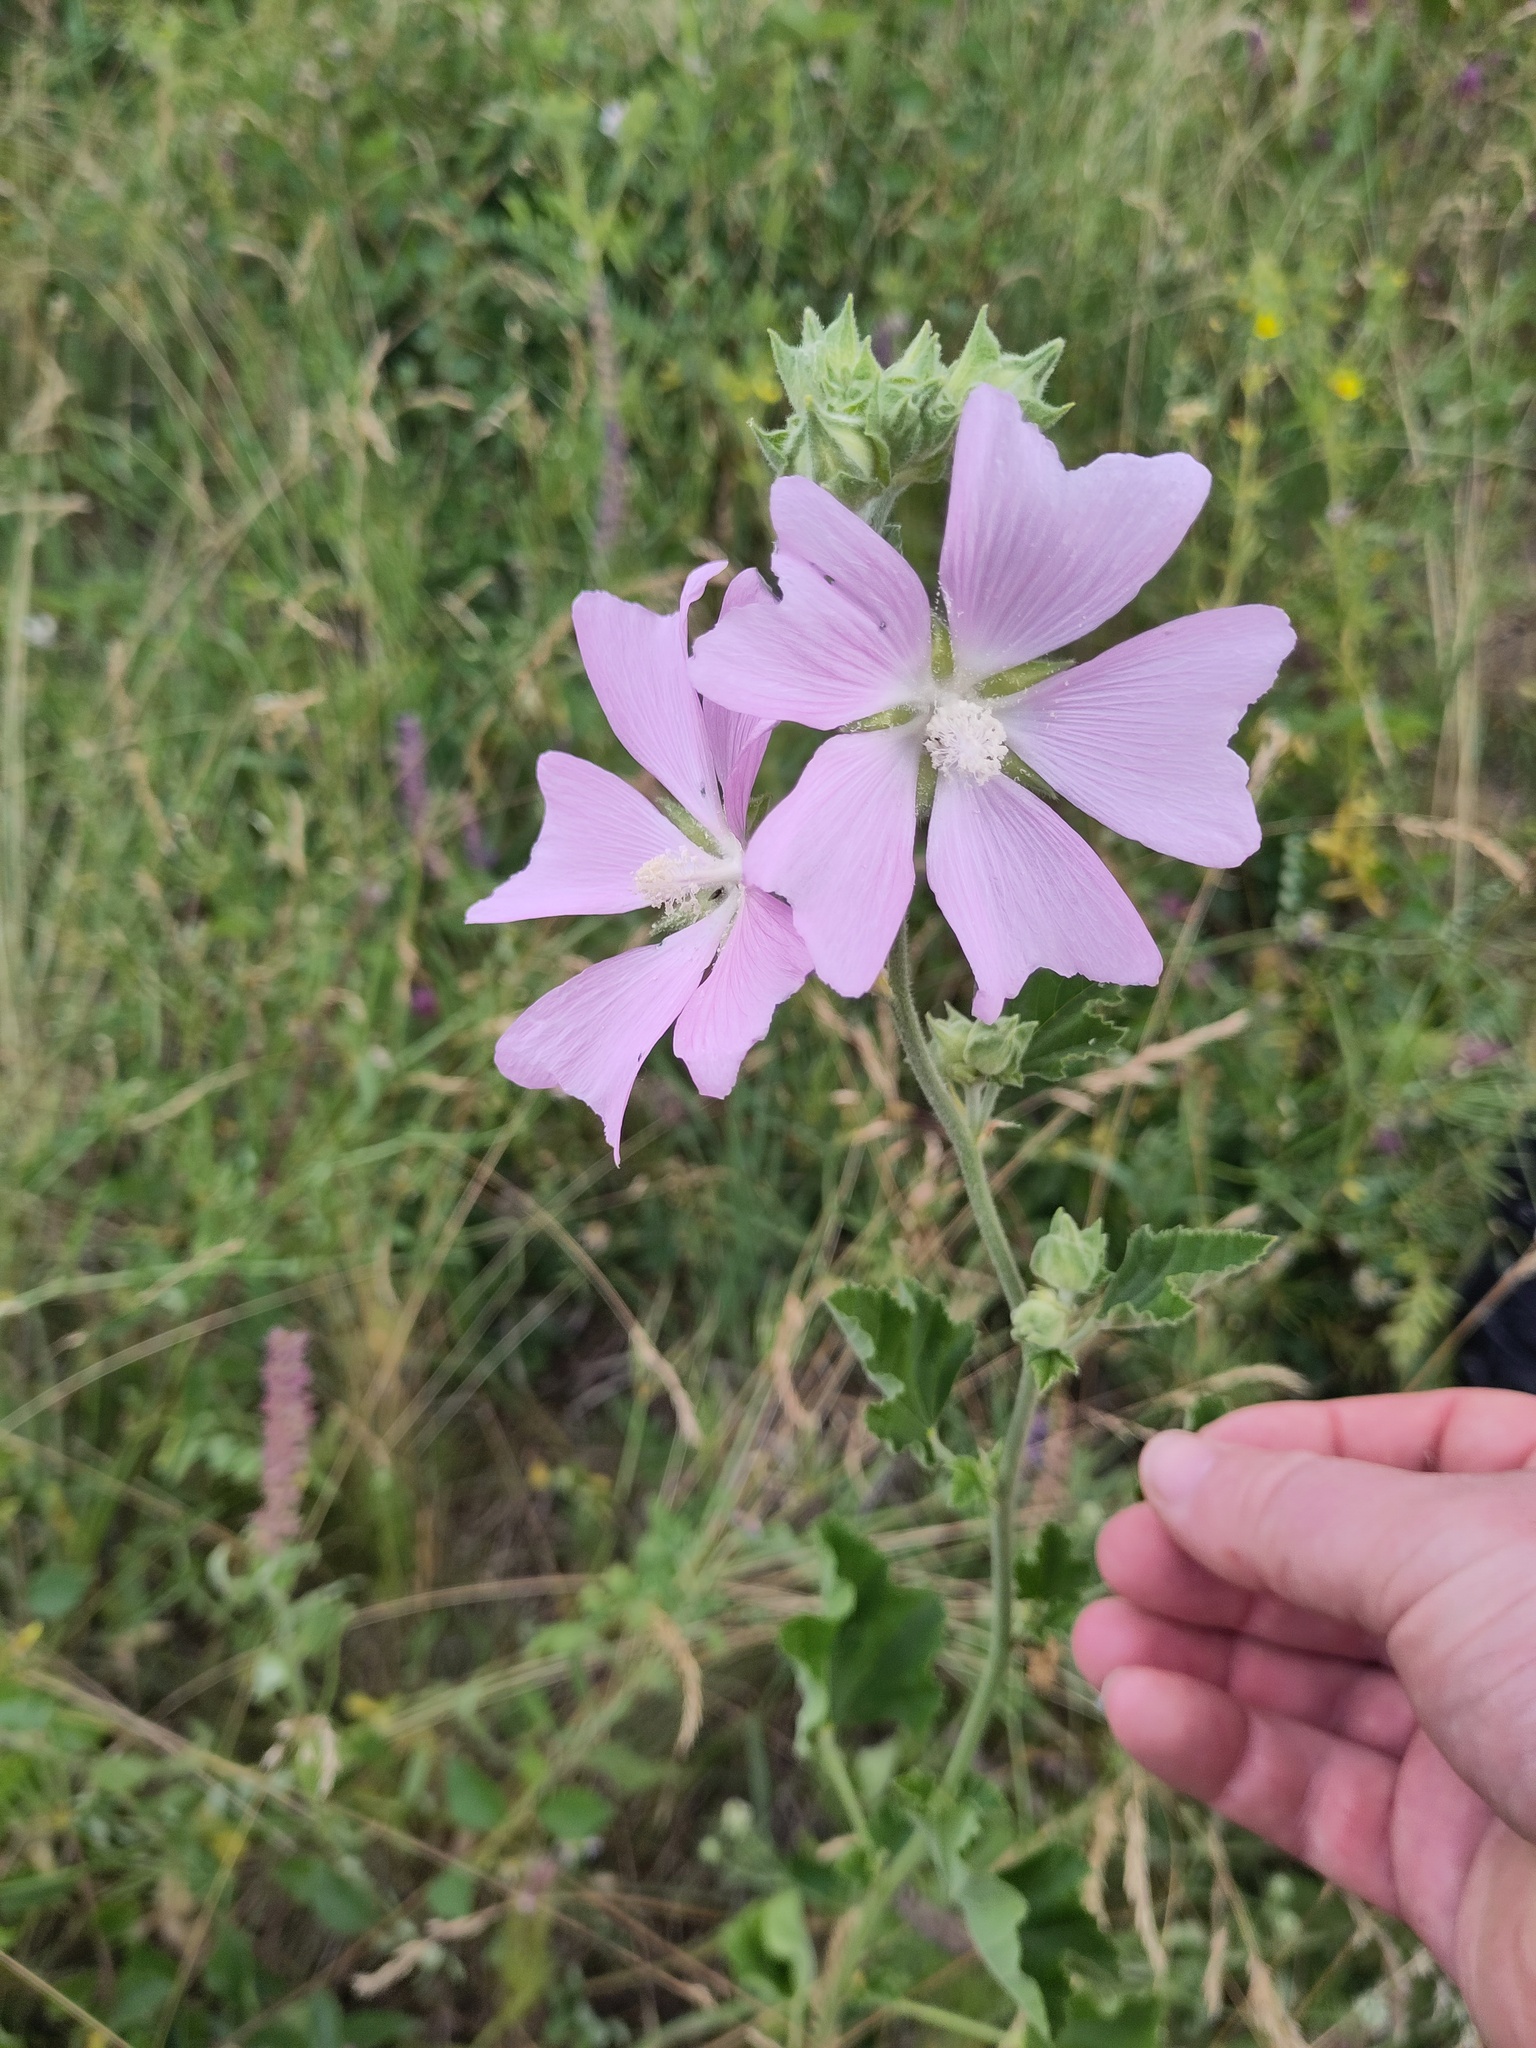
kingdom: Plantae
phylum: Tracheophyta
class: Magnoliopsida
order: Malvales
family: Malvaceae
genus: Malva
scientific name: Malva thuringiaca
